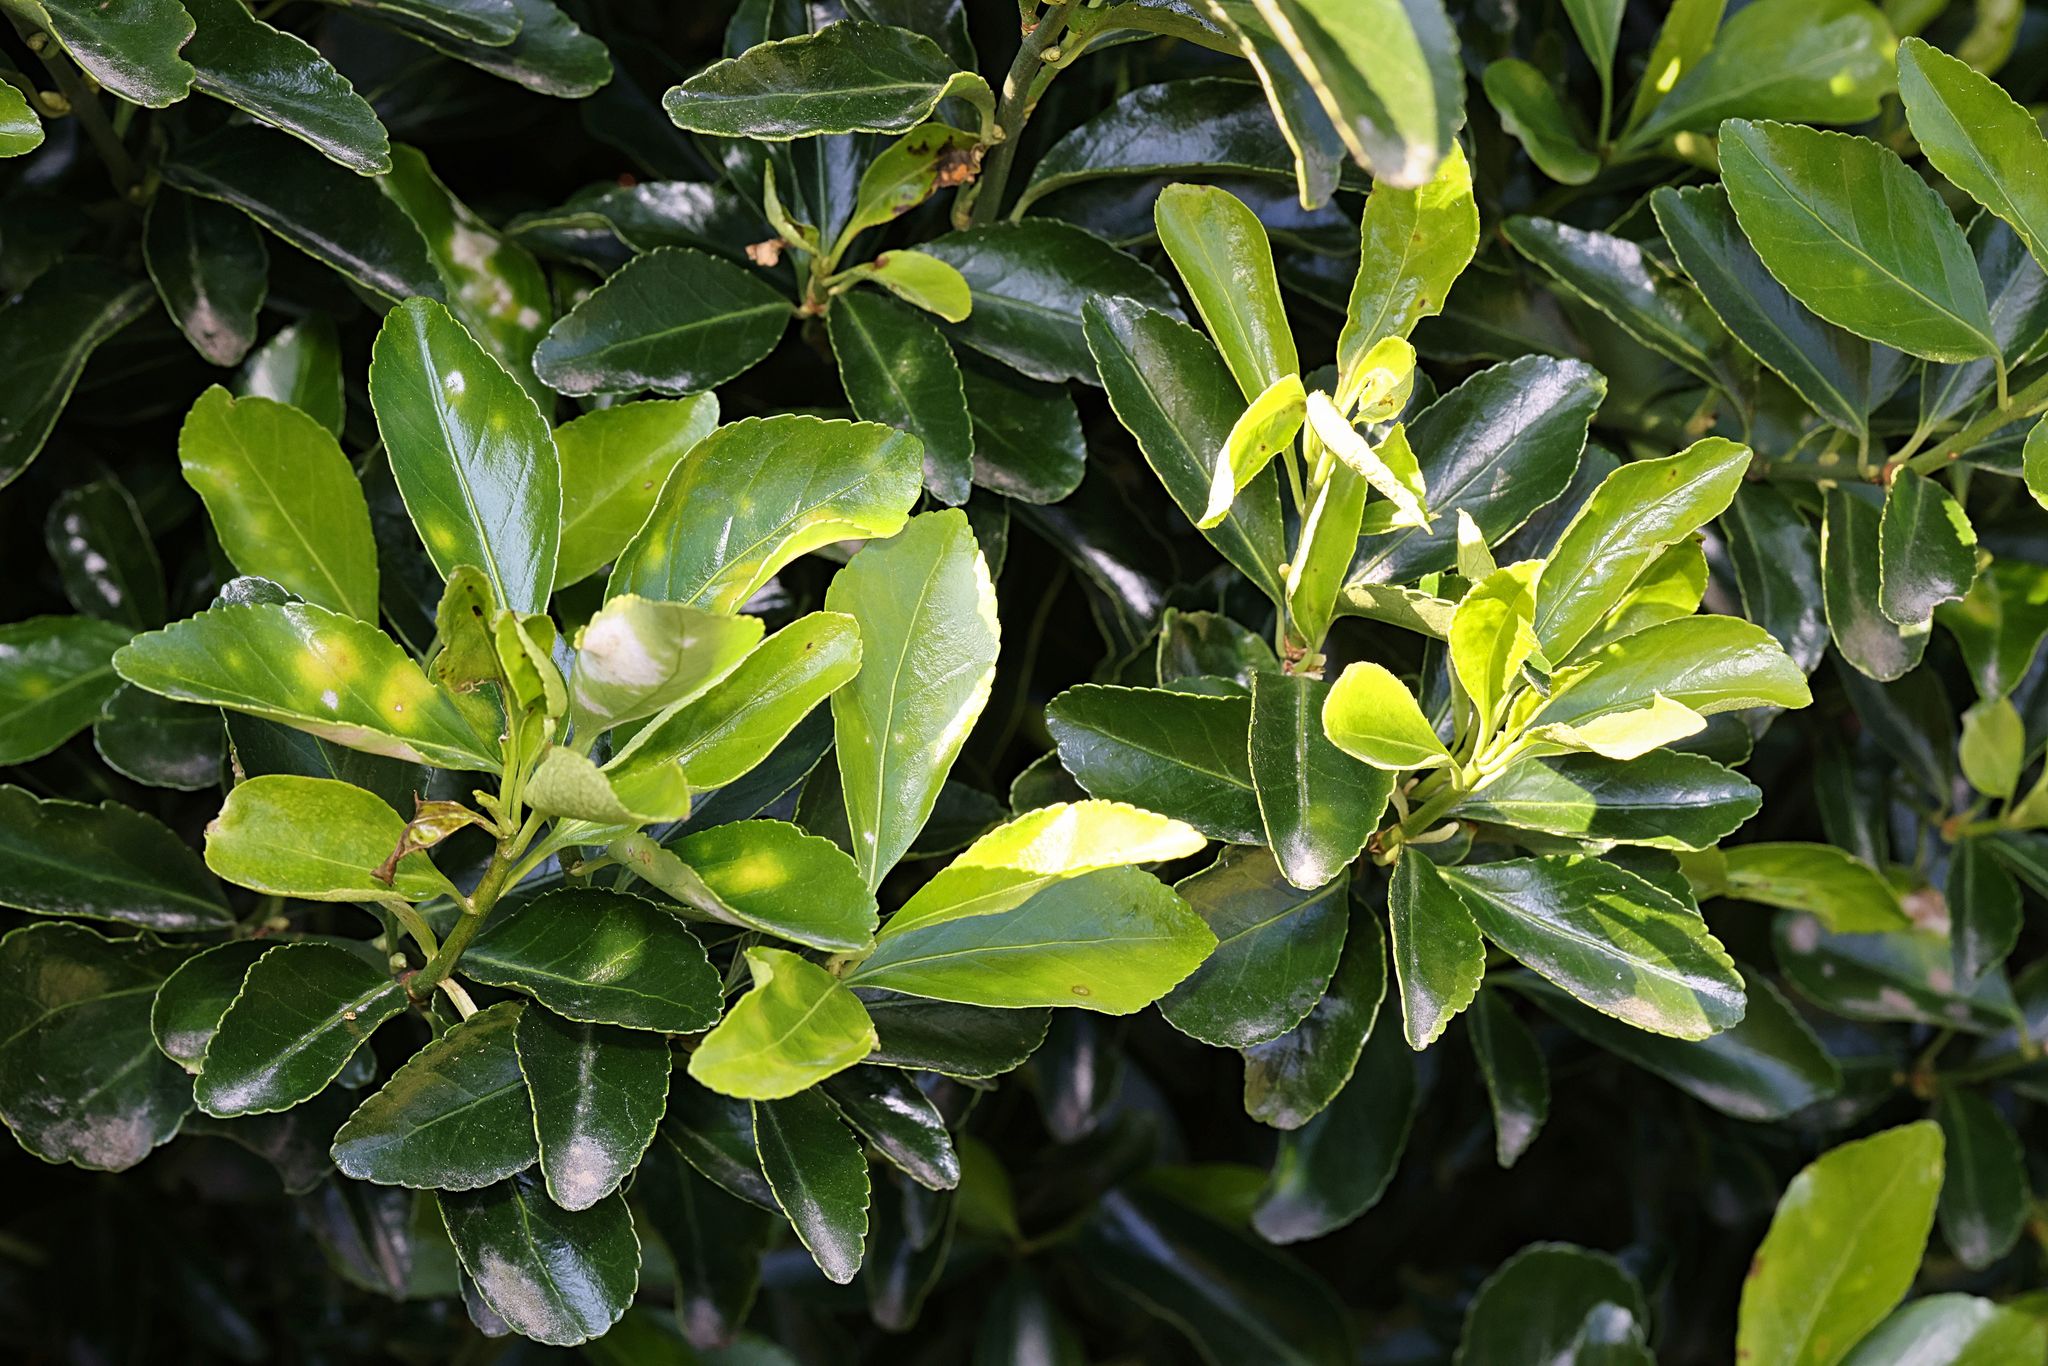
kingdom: Plantae
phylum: Tracheophyta
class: Magnoliopsida
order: Celastrales
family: Celastraceae
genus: Euonymus
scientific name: Euonymus japonicus
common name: Japanese spindletree
